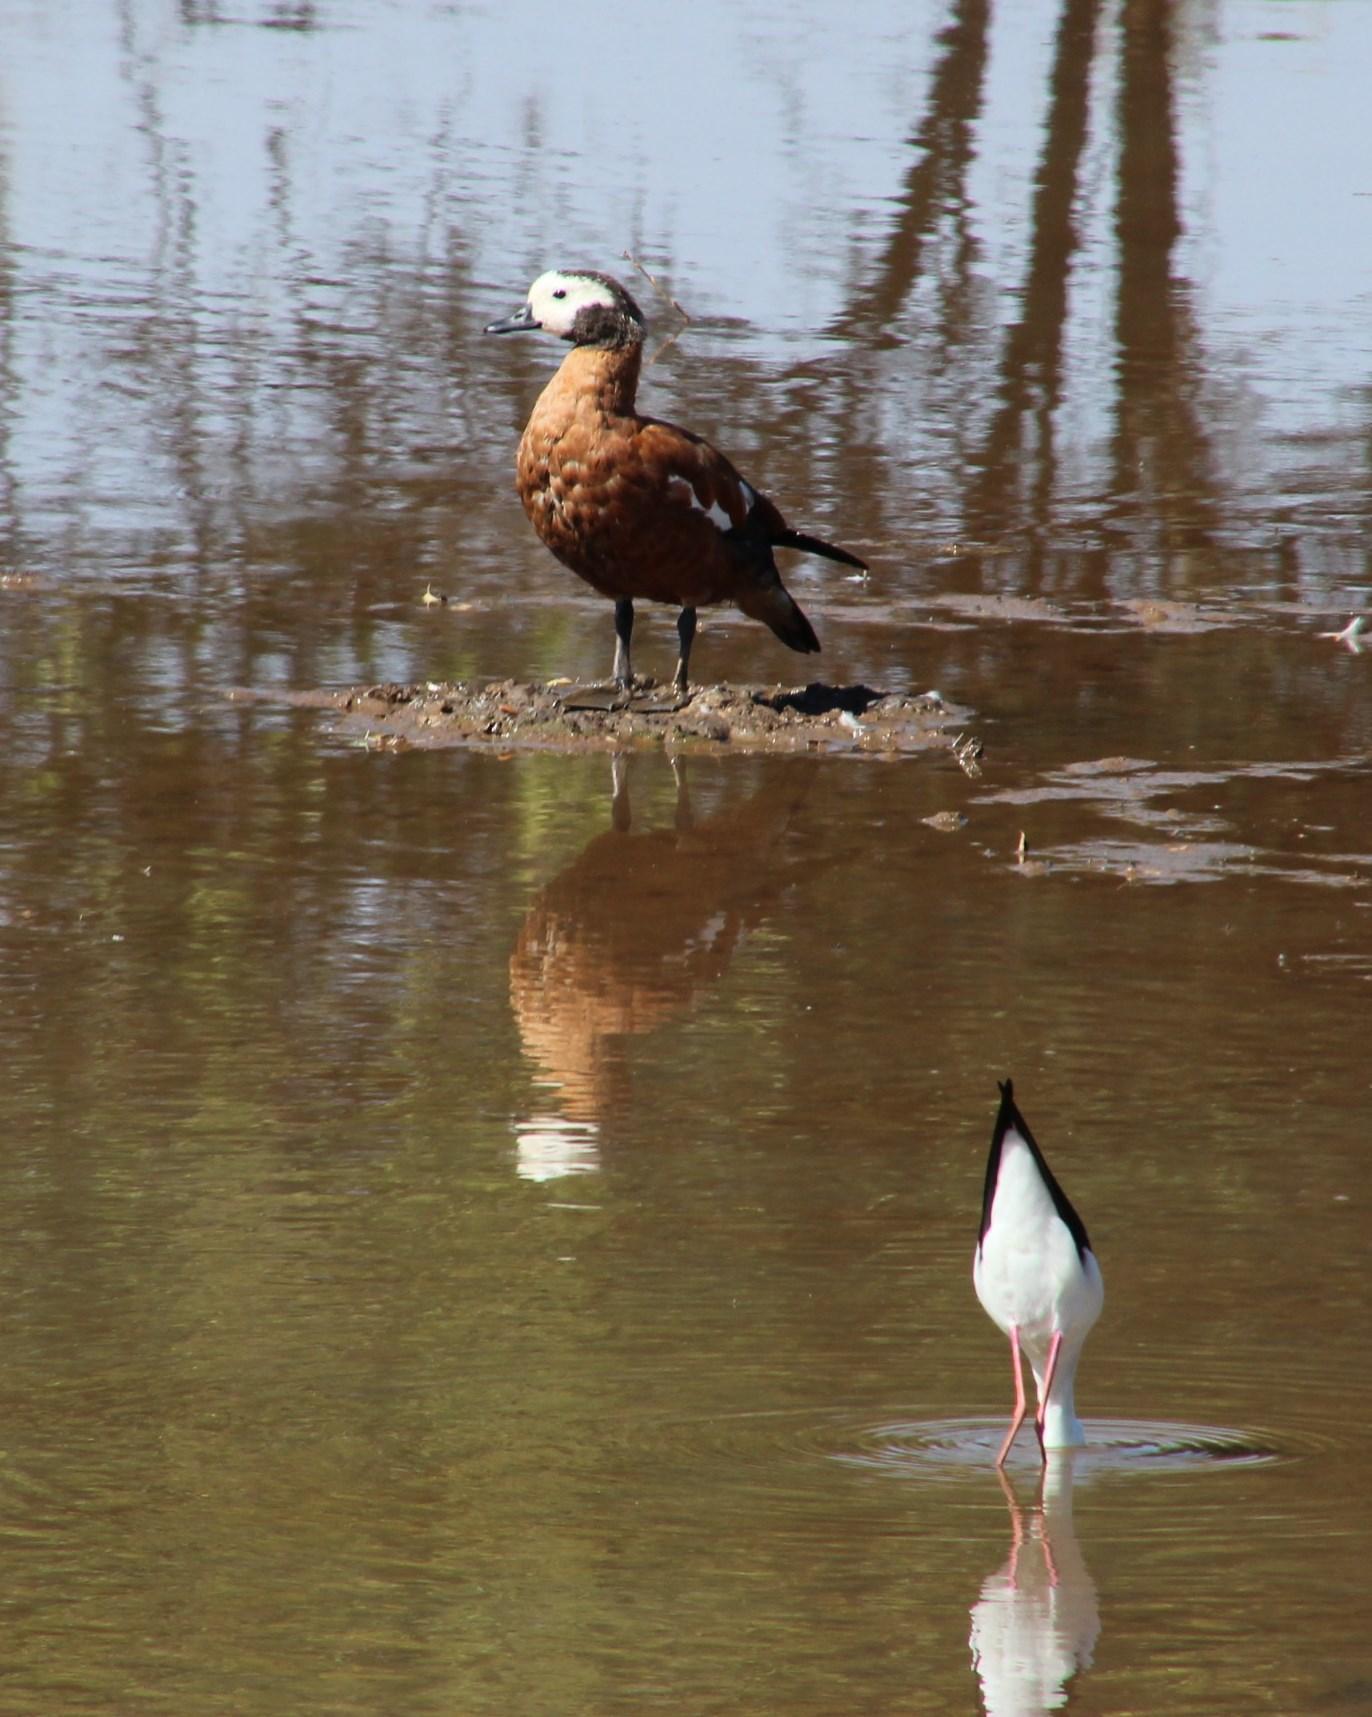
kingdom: Animalia
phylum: Chordata
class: Aves
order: Anseriformes
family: Anatidae
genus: Tadorna
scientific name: Tadorna cana
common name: South african shelduck
